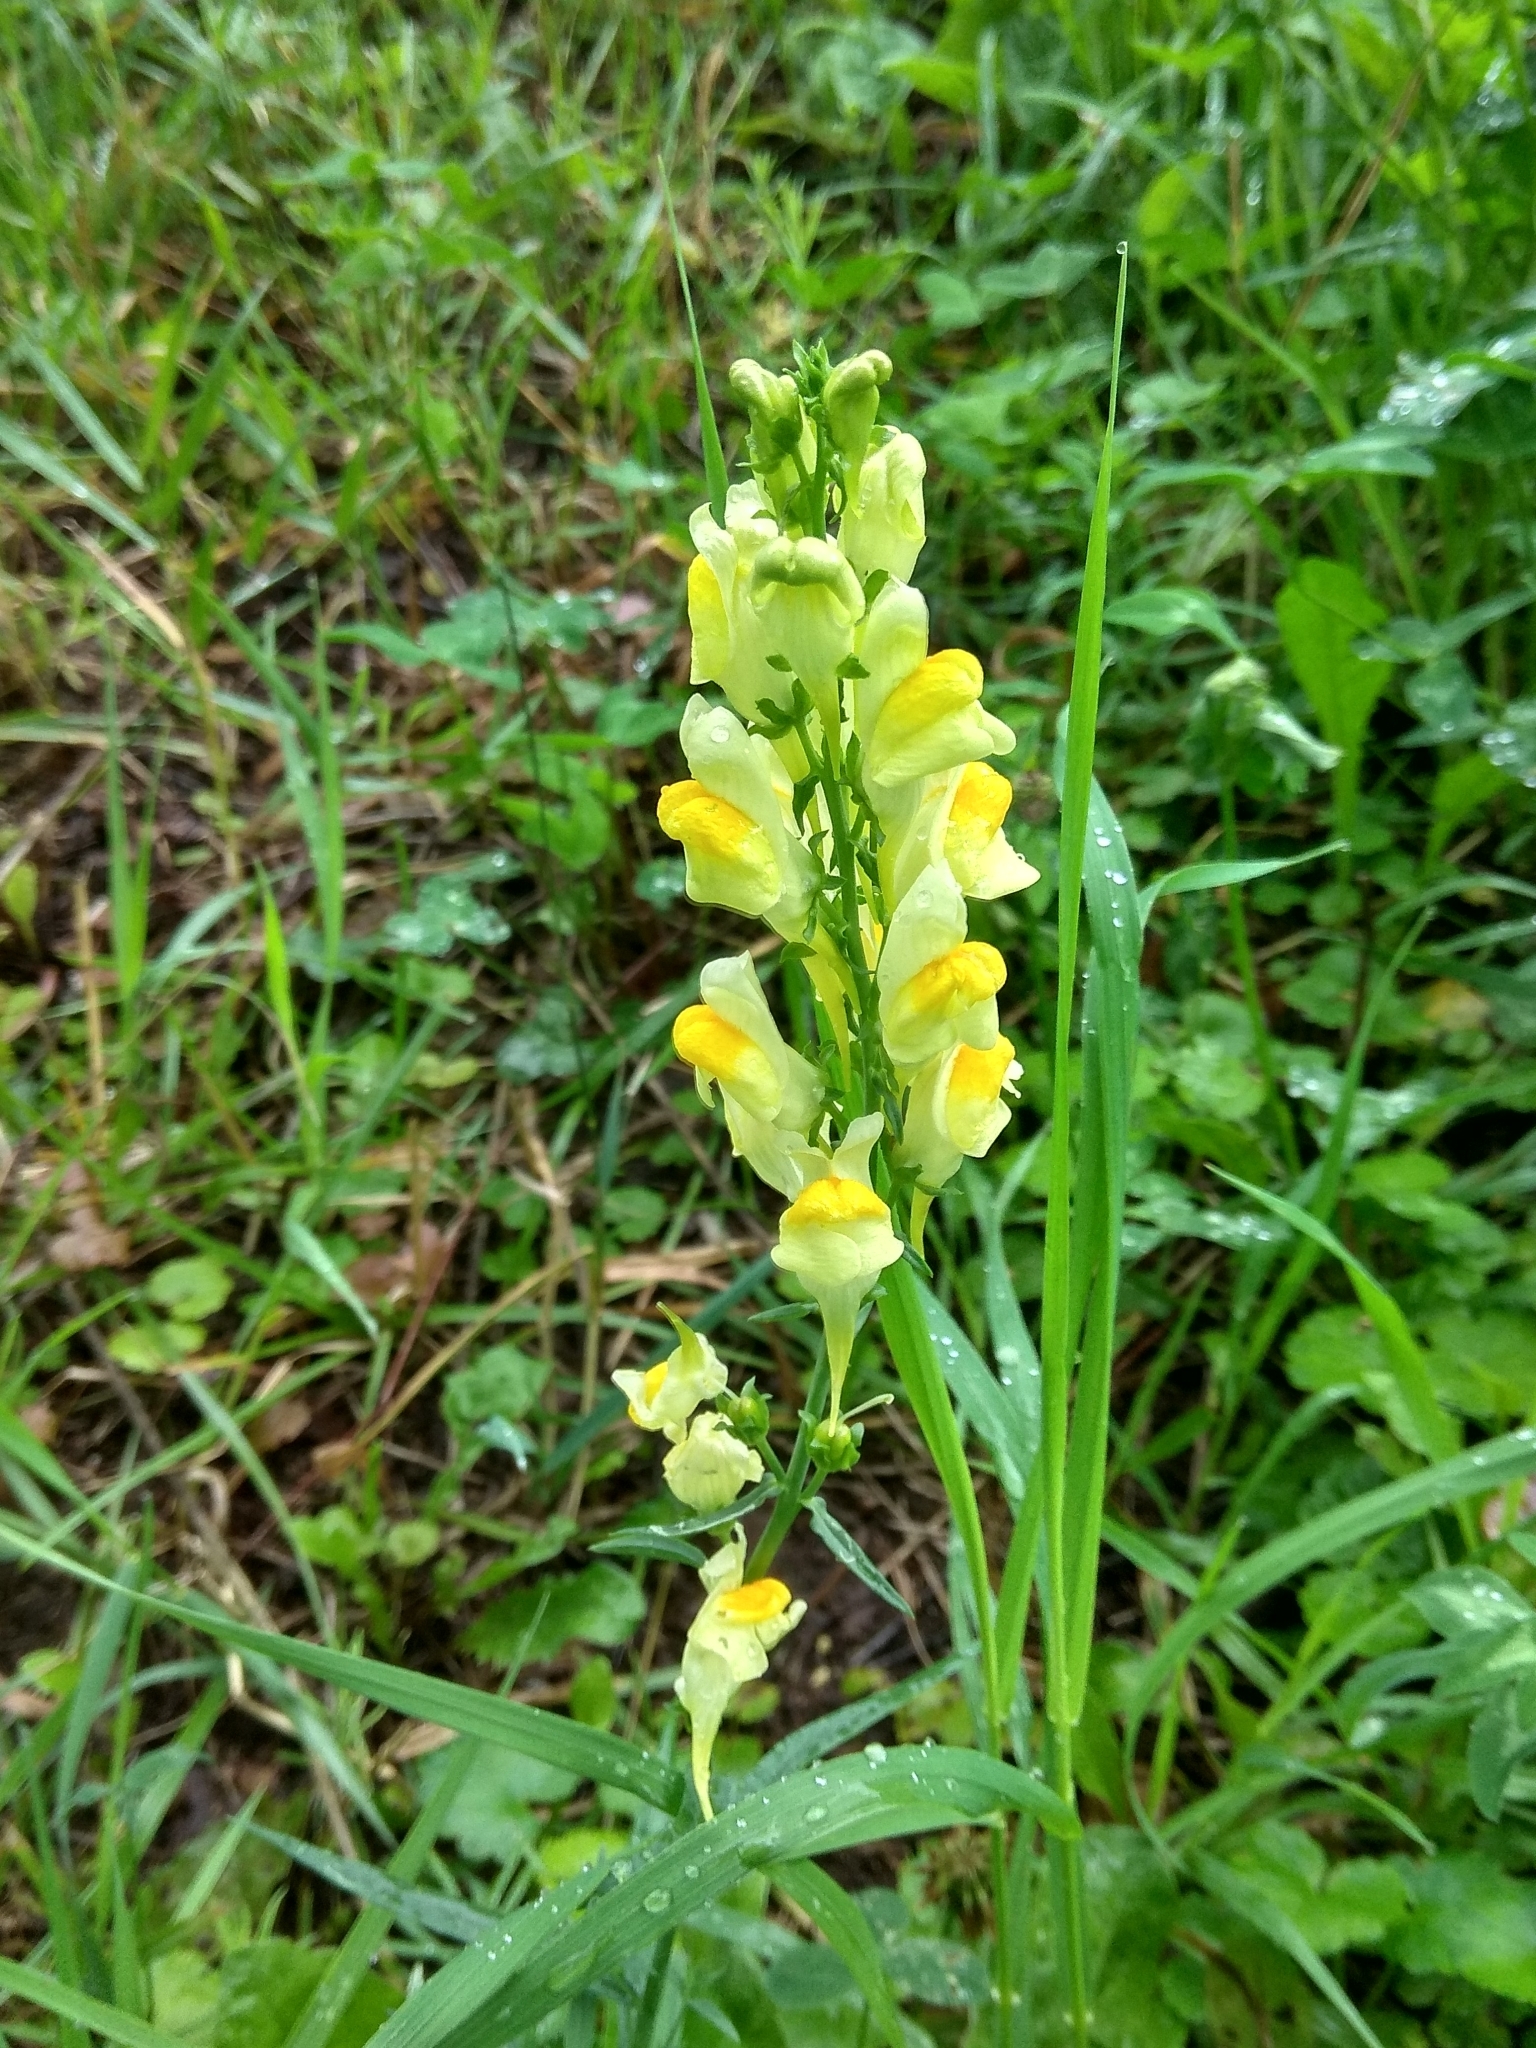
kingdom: Plantae
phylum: Tracheophyta
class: Magnoliopsida
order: Lamiales
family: Plantaginaceae
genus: Linaria
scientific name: Linaria vulgaris
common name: Butter and eggs
